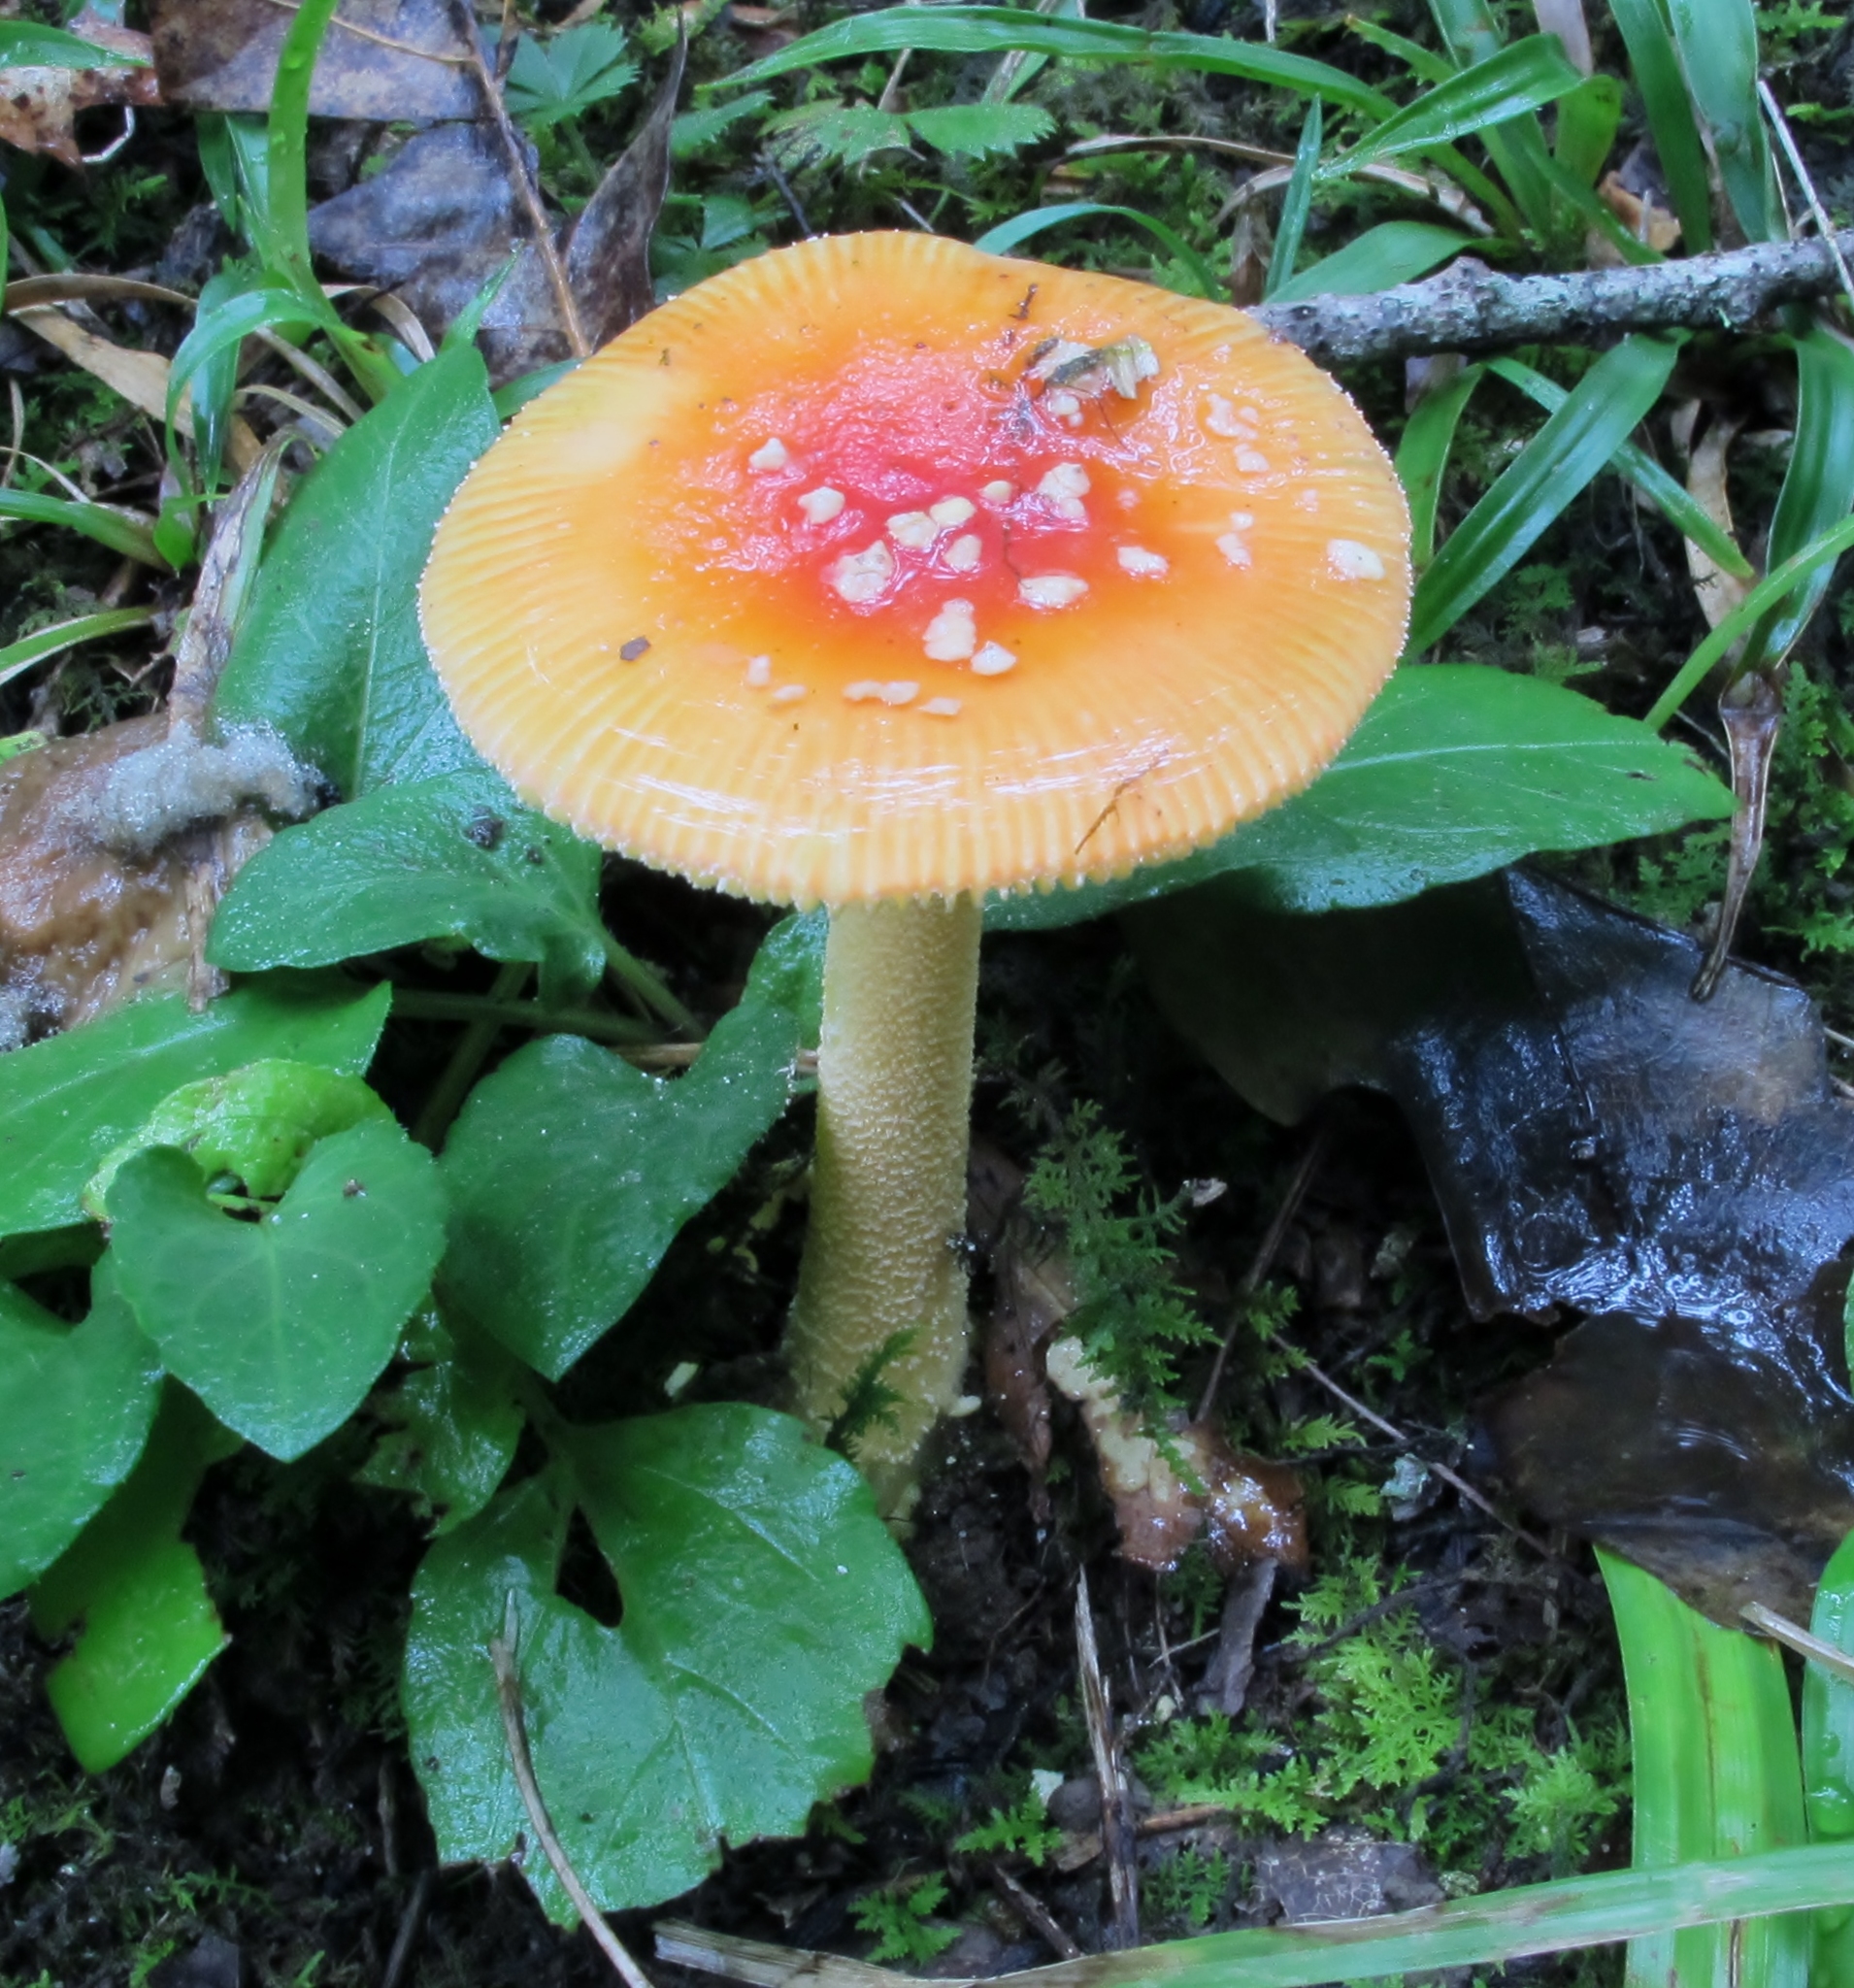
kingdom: Fungi
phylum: Basidiomycota
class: Agaricomycetes
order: Agaricales
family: Amanitaceae
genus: Amanita
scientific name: Amanita parcivolvata
